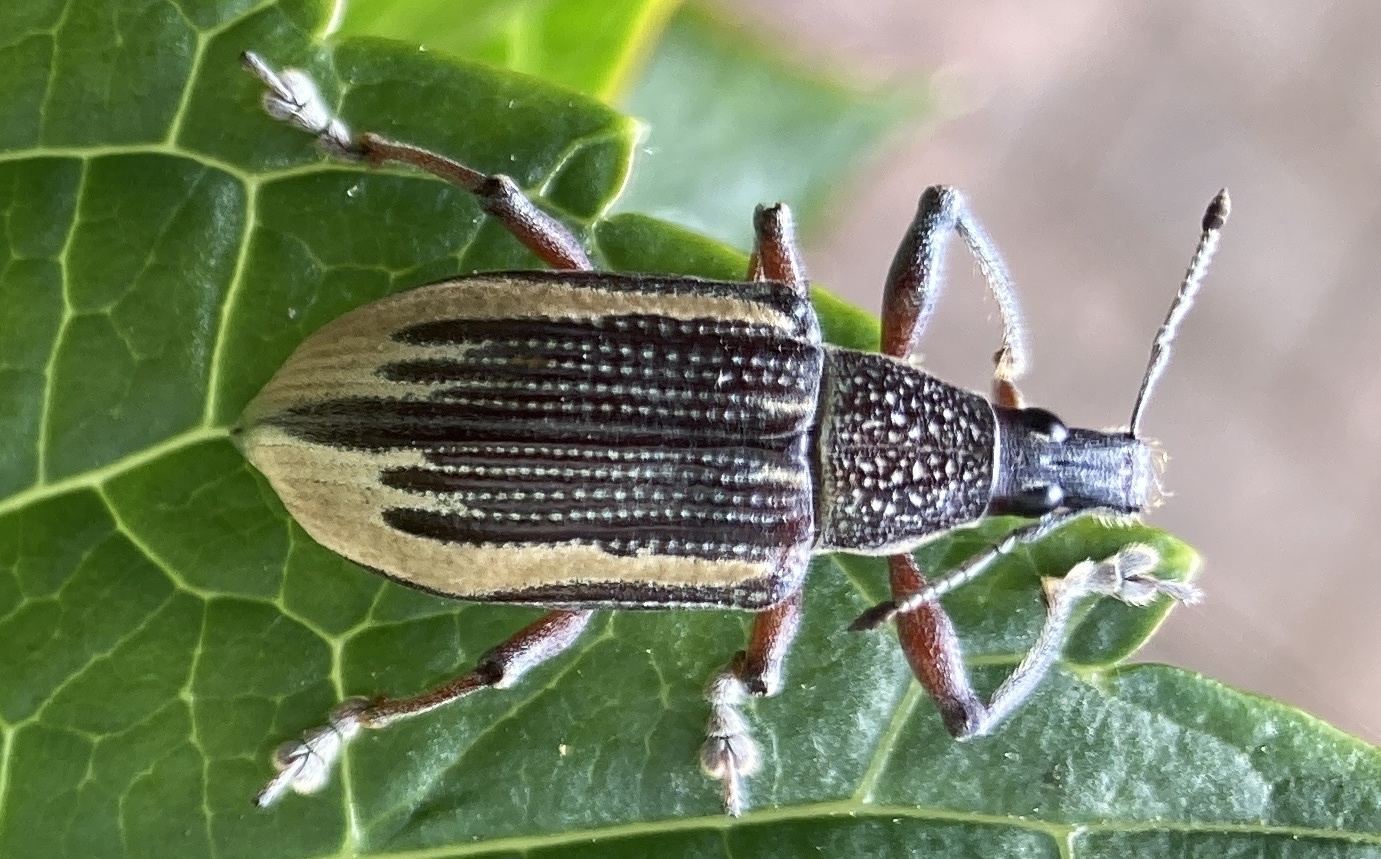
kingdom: Animalia
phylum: Arthropoda
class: Insecta
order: Coleoptera
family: Curculionidae
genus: Diaprepes
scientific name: Diaprepes abbreviatus
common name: Root weevil
